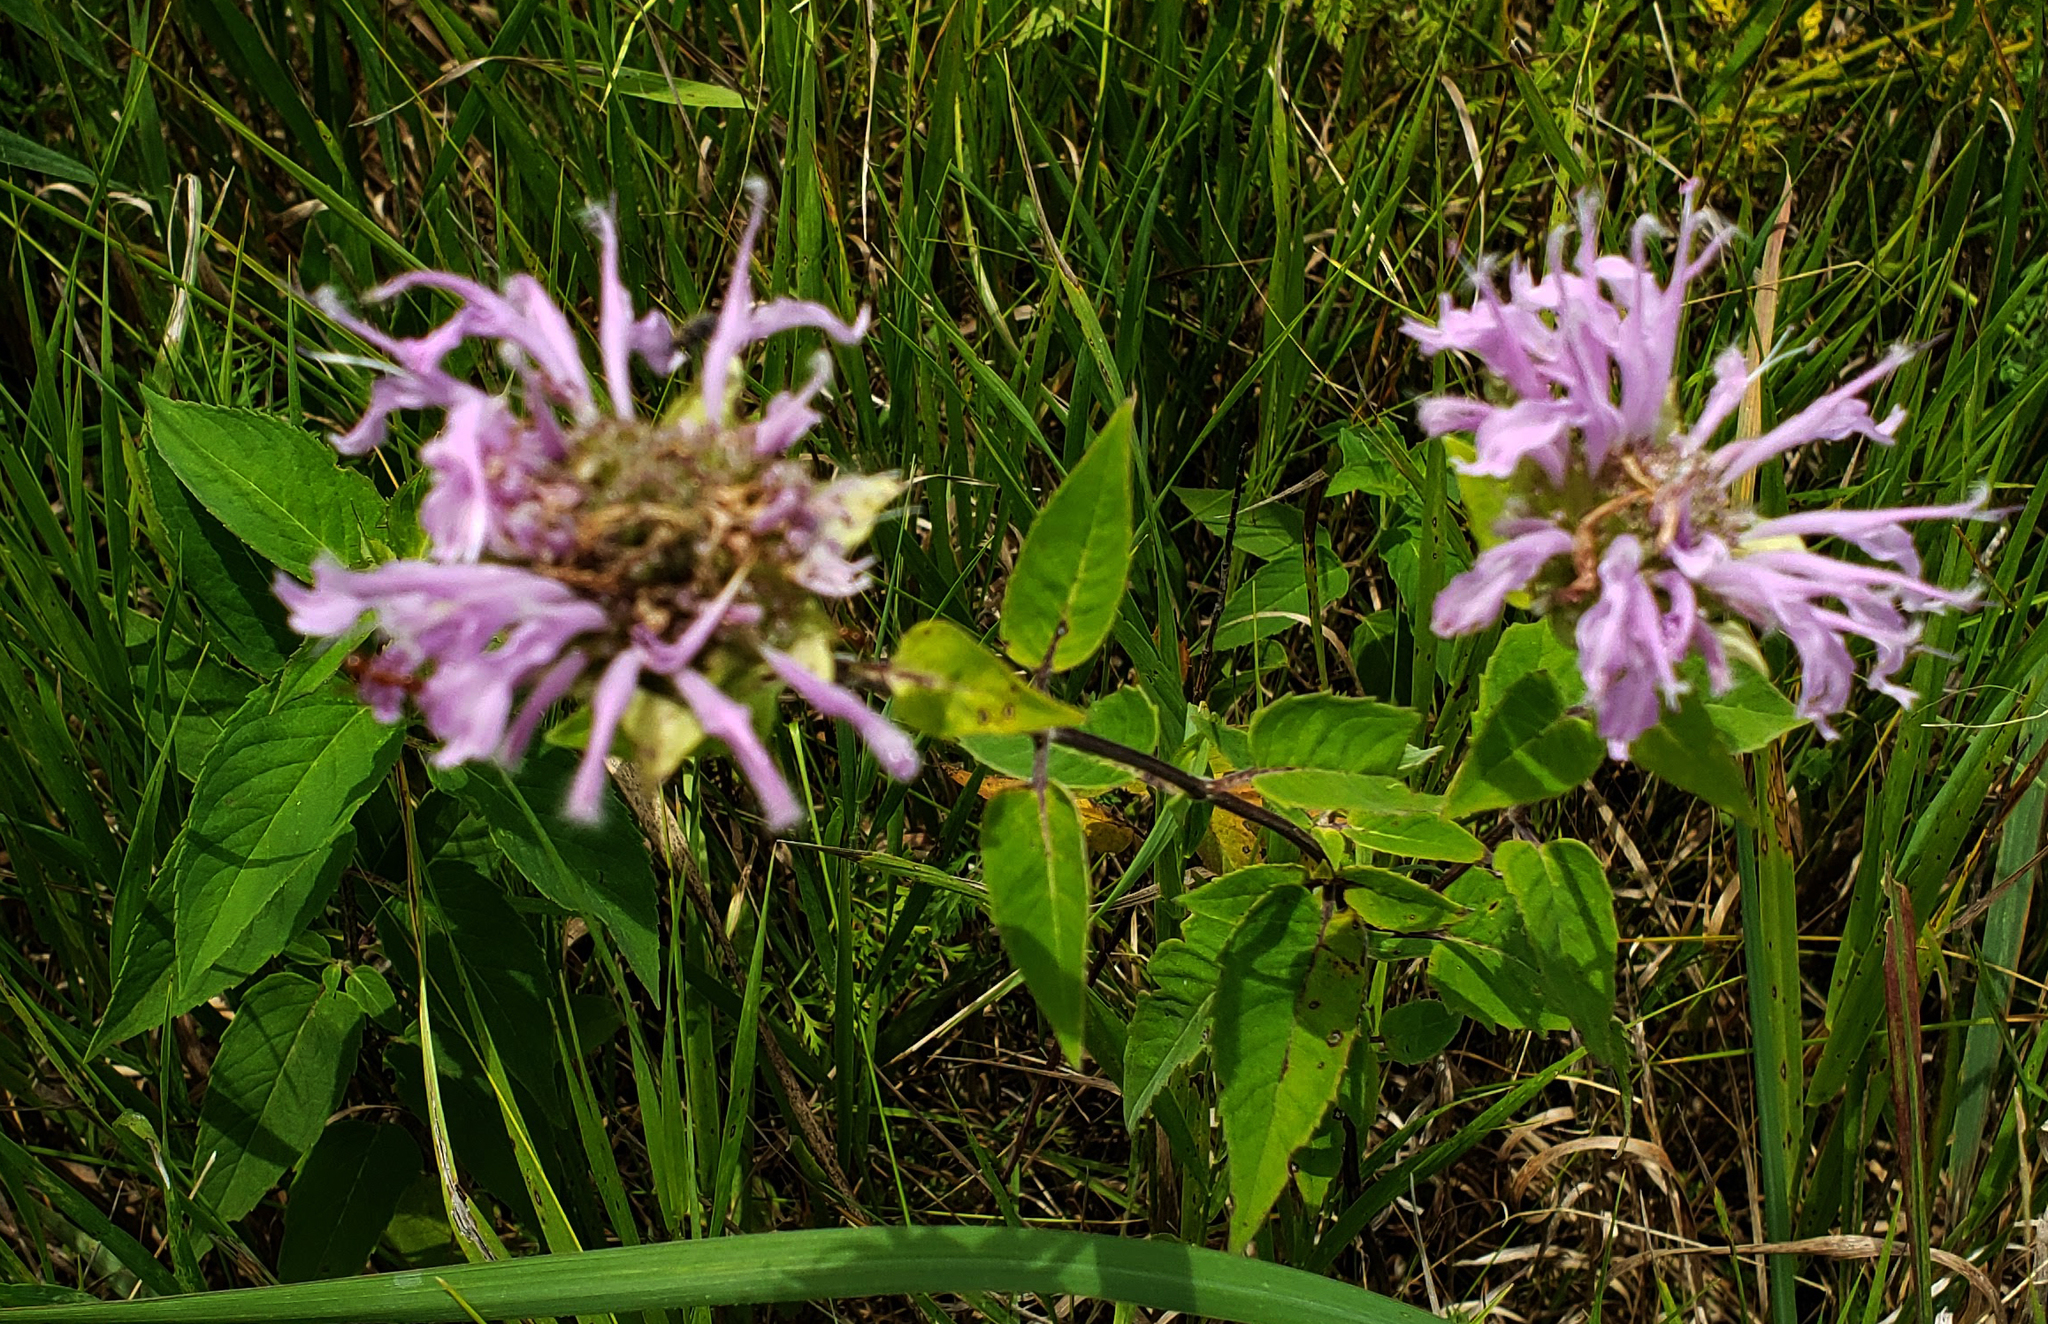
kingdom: Plantae
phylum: Tracheophyta
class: Magnoliopsida
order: Lamiales
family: Lamiaceae
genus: Monarda
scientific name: Monarda fistulosa
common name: Purple beebalm
